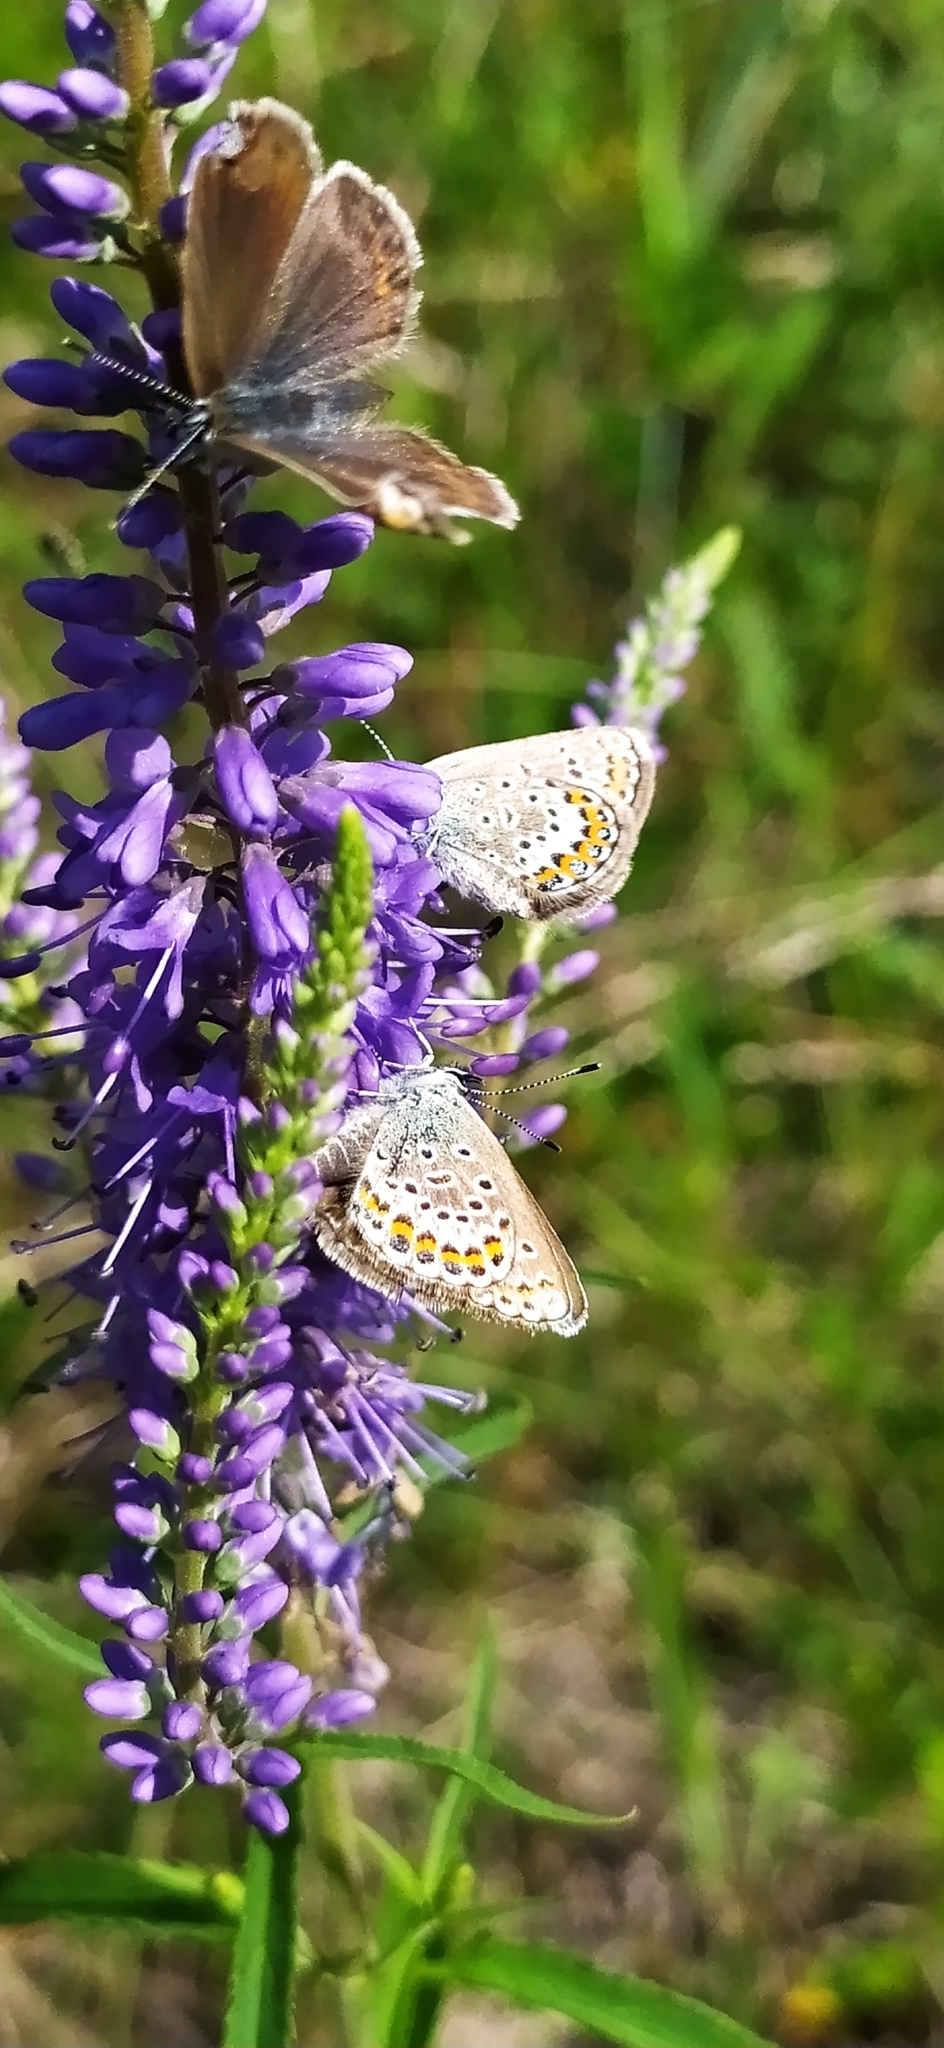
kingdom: Animalia
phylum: Arthropoda
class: Insecta
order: Lepidoptera
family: Lycaenidae
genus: Plebejus
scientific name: Plebejus argus
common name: Silver-studded blue
